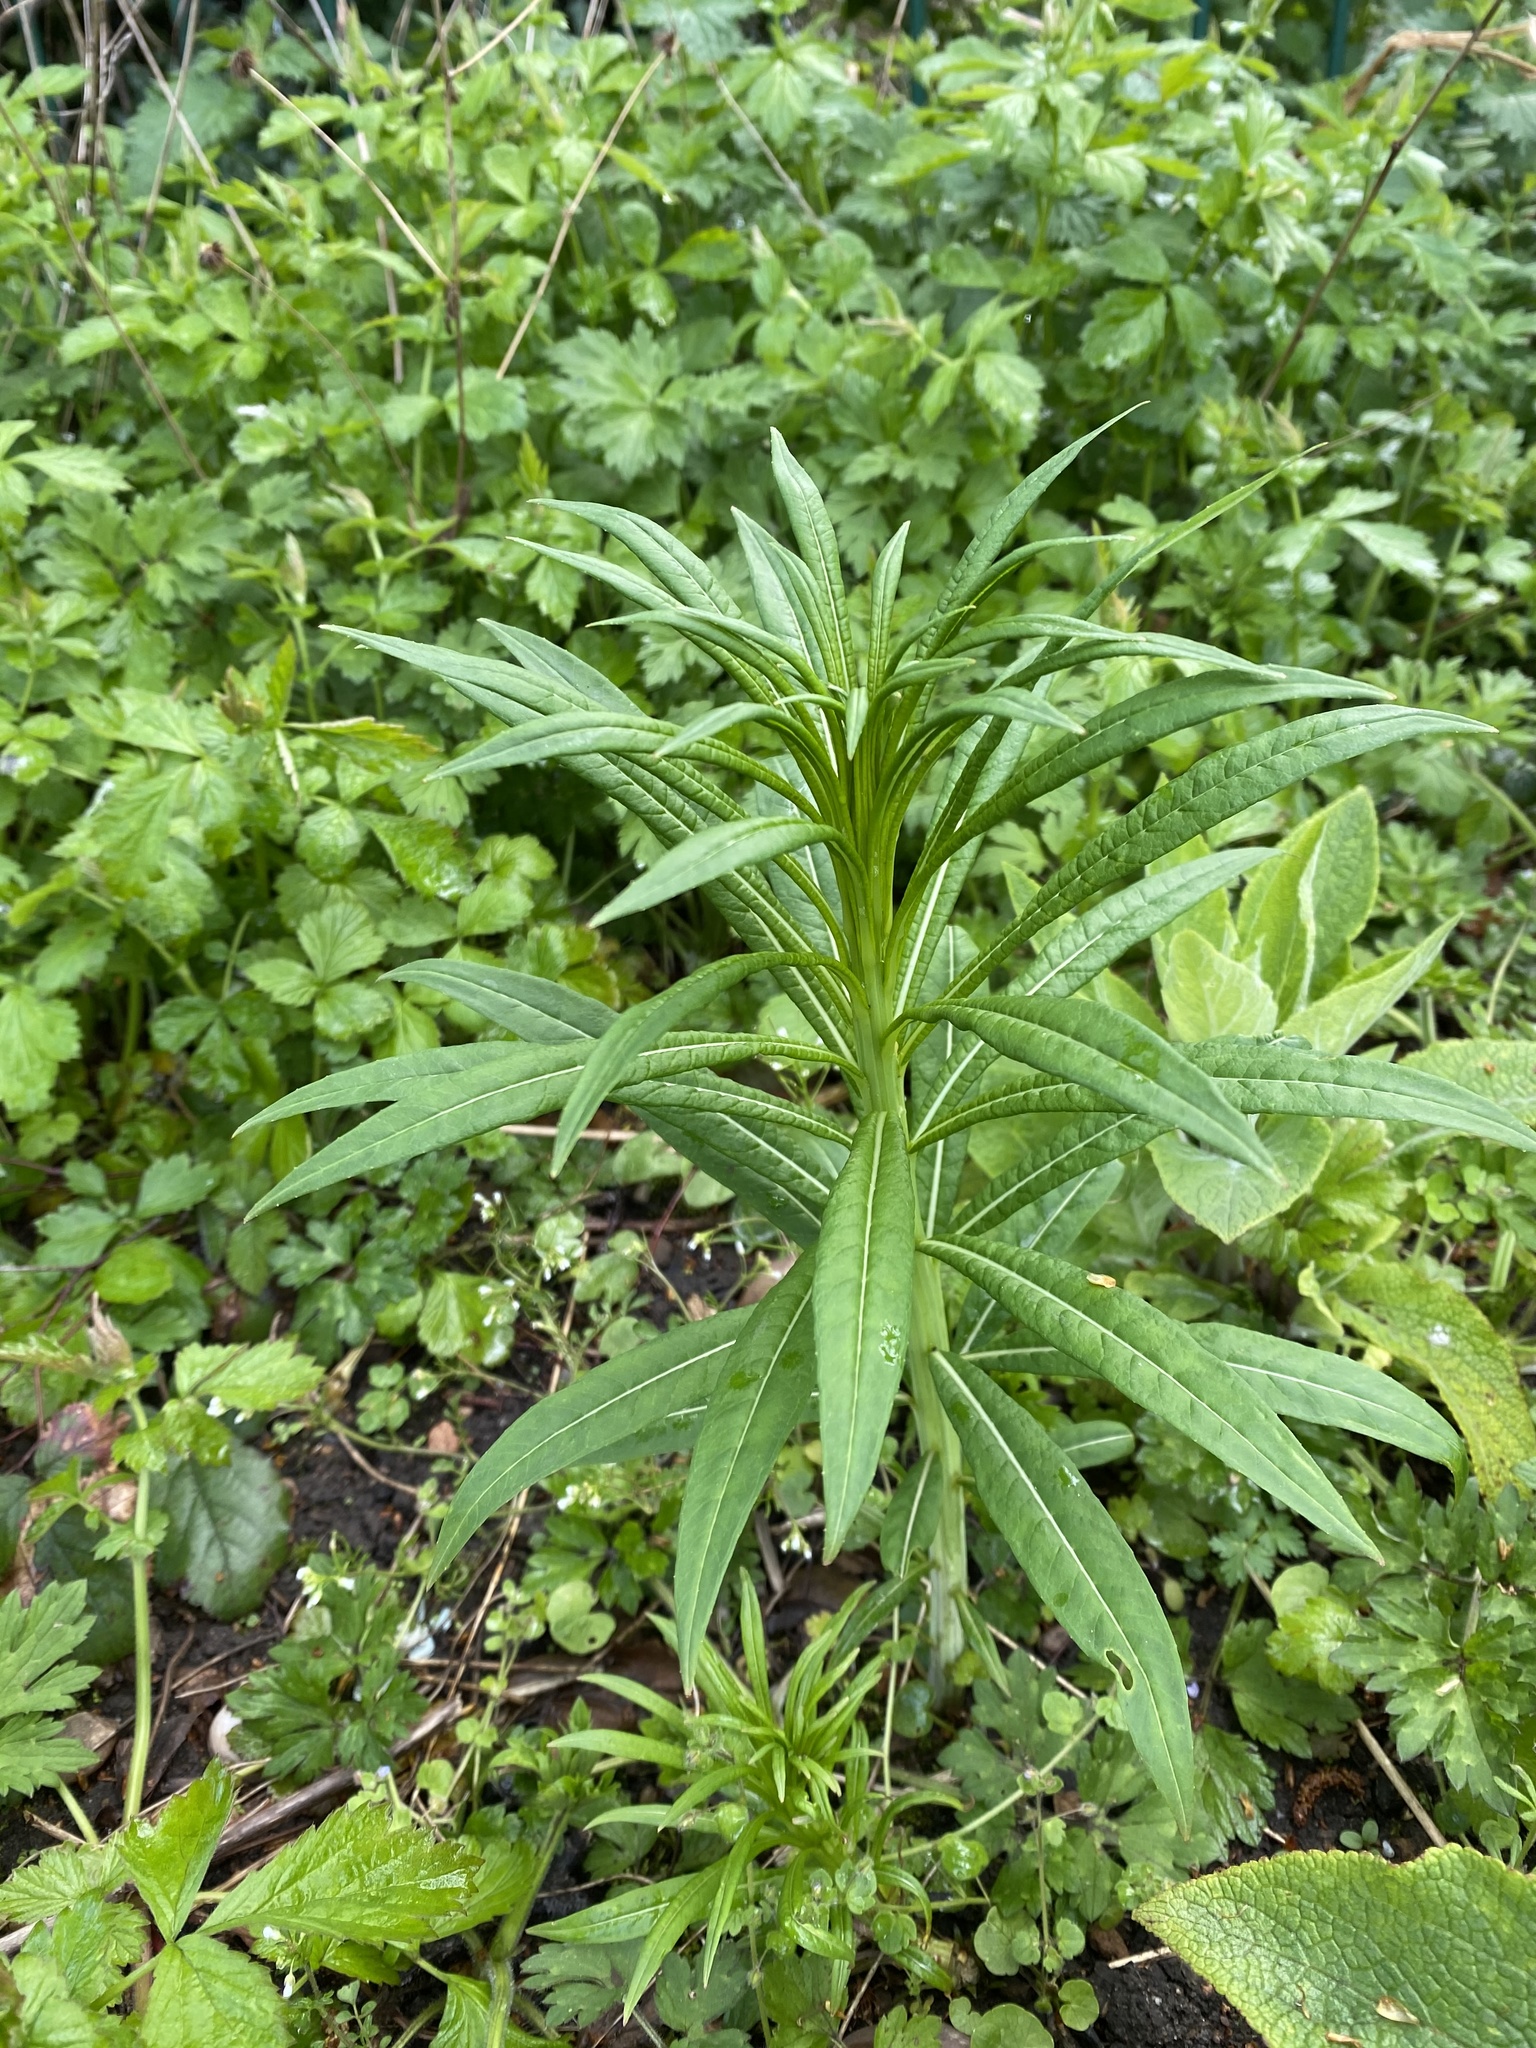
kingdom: Plantae
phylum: Tracheophyta
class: Magnoliopsida
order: Myrtales
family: Onagraceae
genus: Chamaenerion
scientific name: Chamaenerion angustifolium
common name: Fireweed
